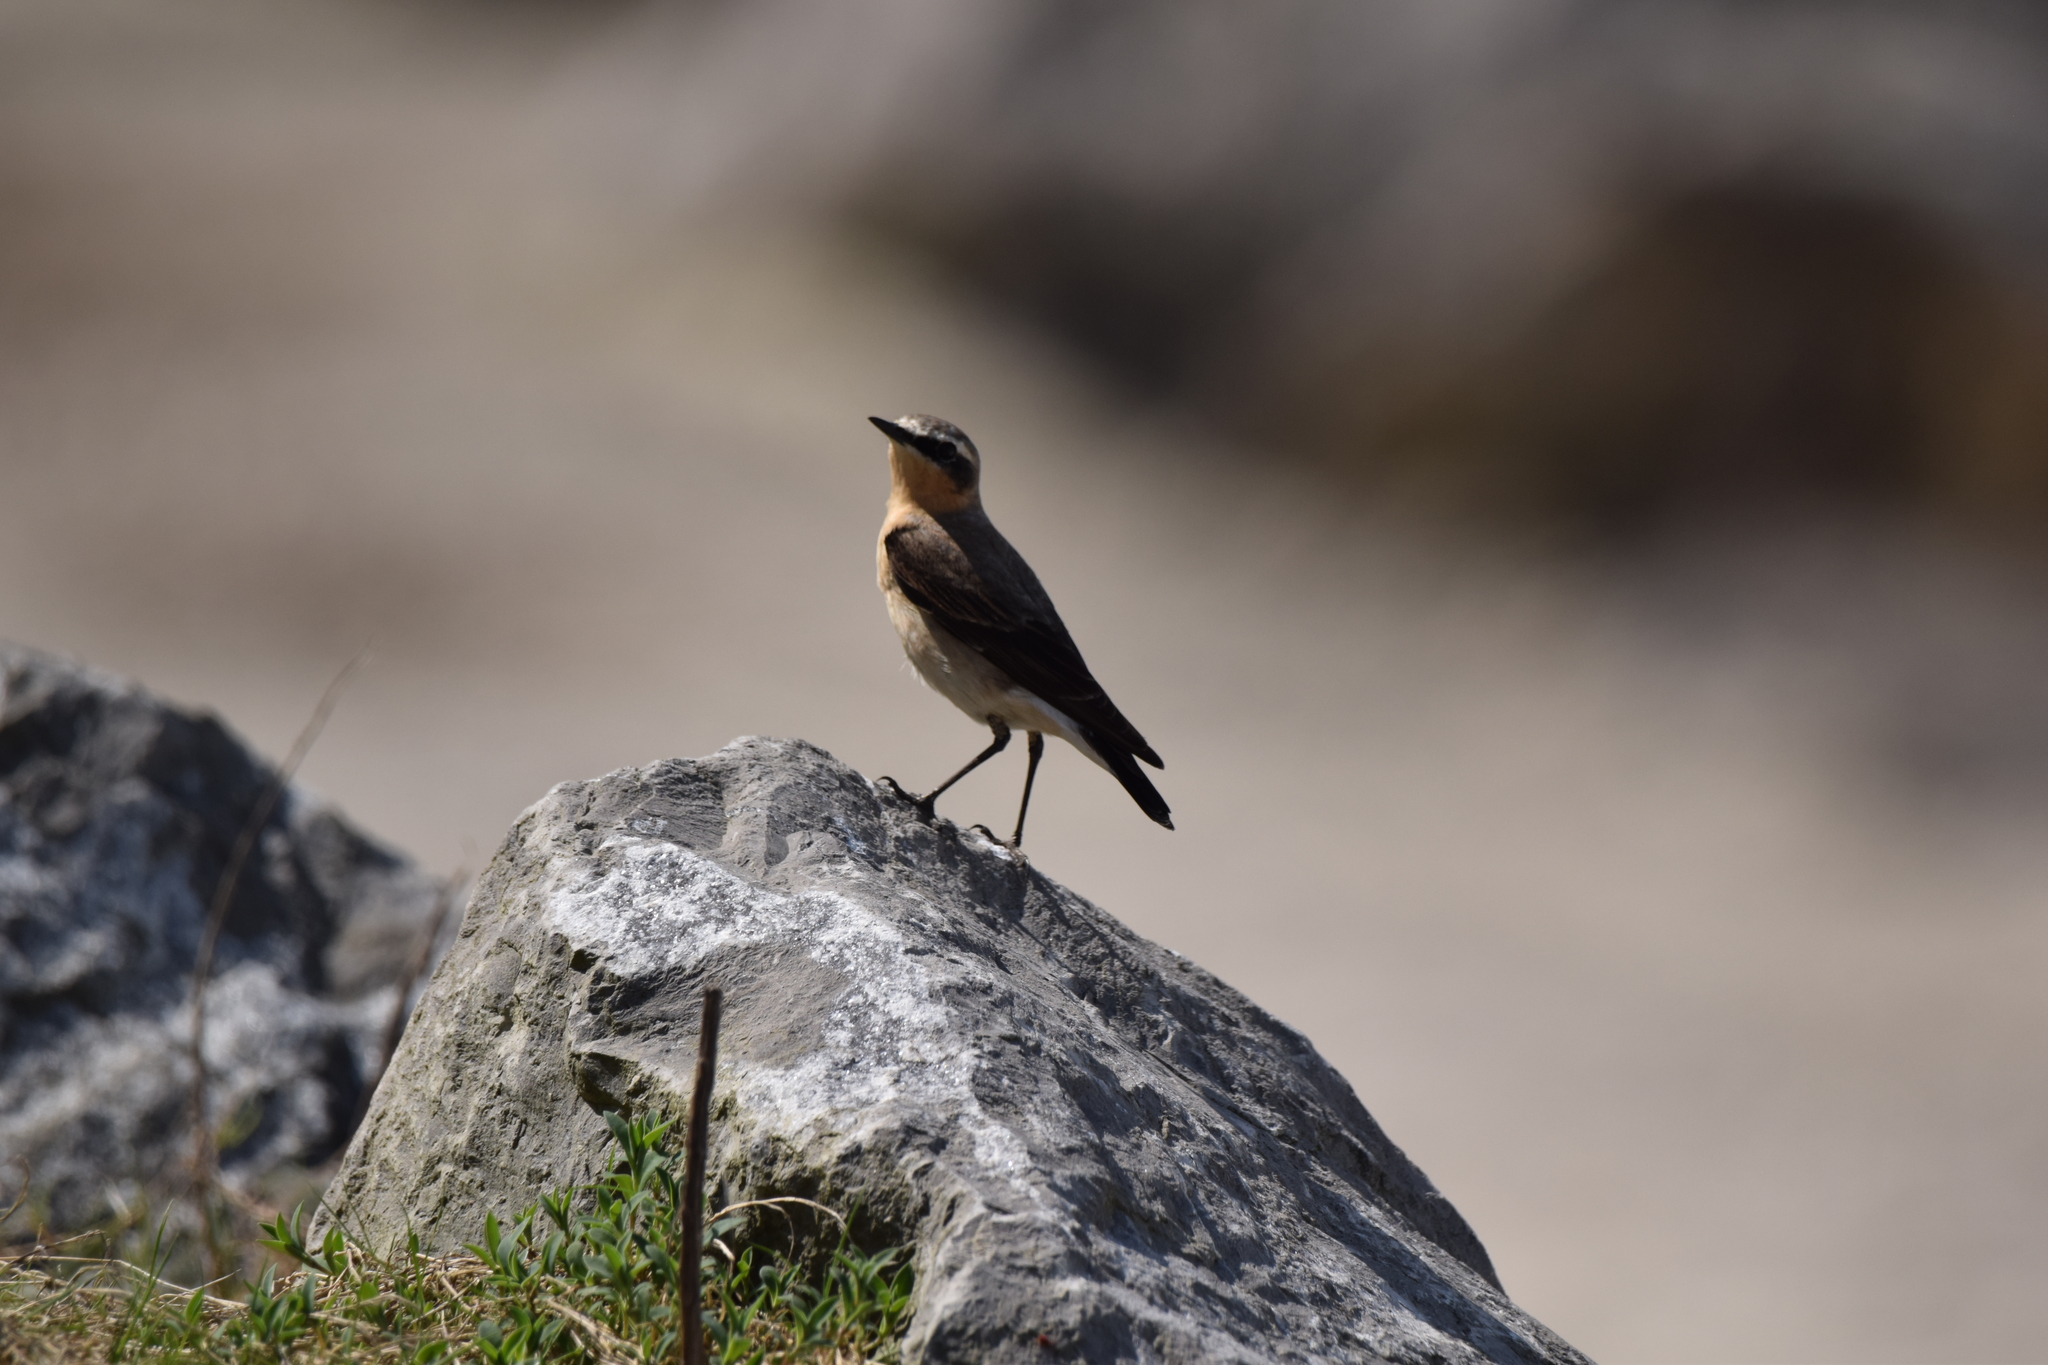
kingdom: Animalia
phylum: Chordata
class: Aves
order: Passeriformes
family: Muscicapidae
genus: Oenanthe
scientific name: Oenanthe oenanthe
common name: Northern wheatear
